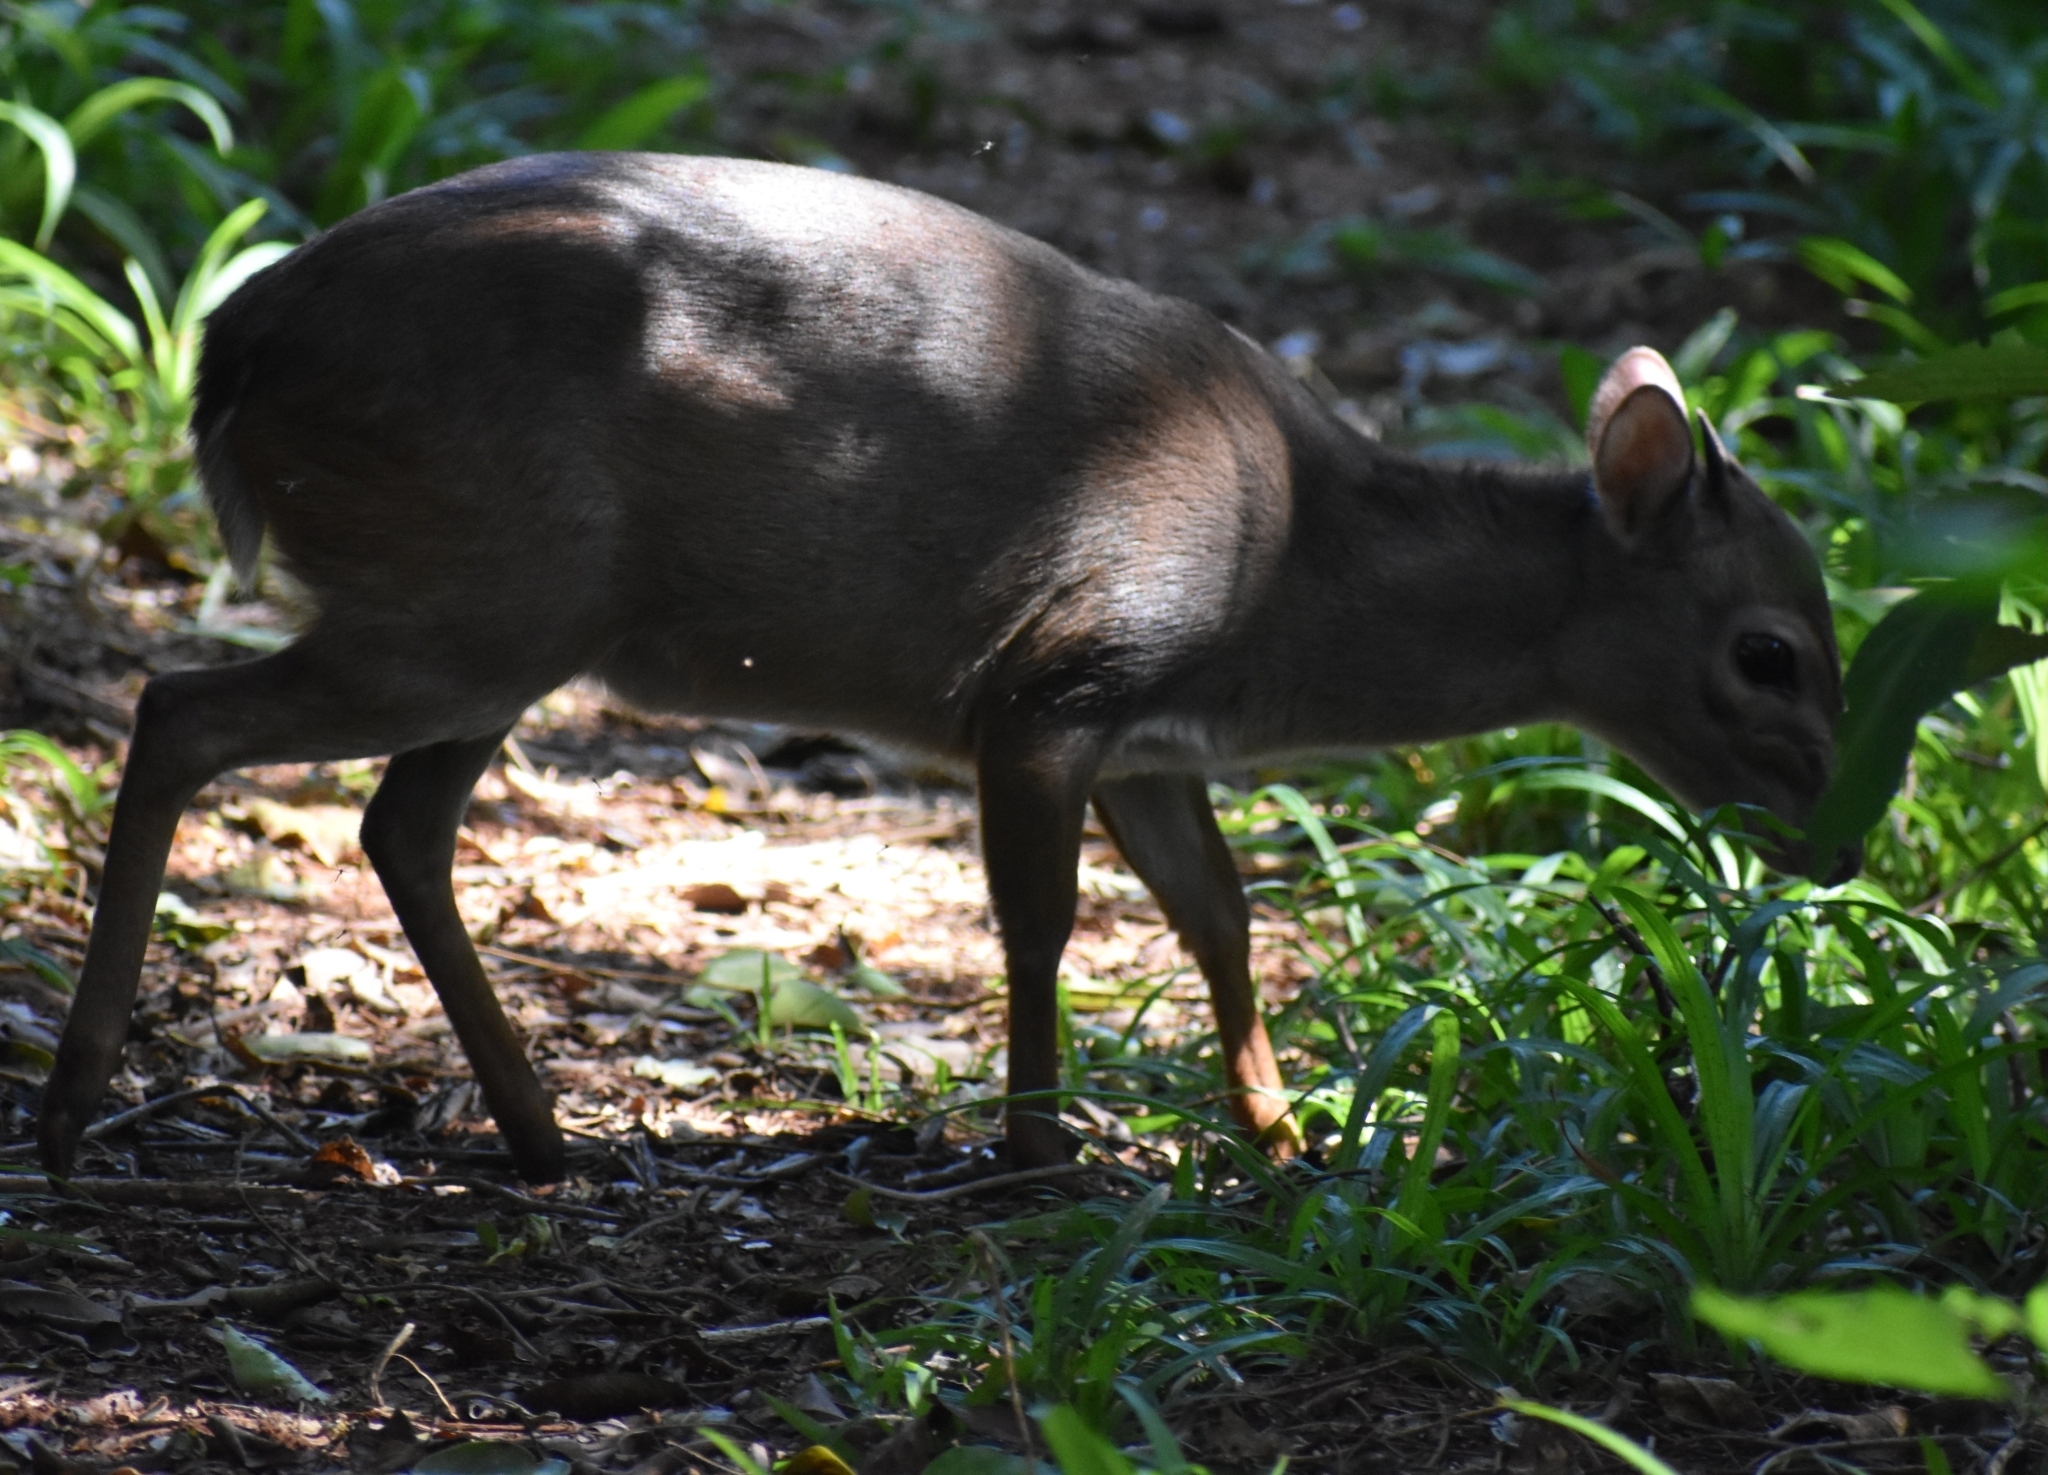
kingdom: Animalia
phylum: Chordata
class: Mammalia
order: Artiodactyla
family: Bovidae
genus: Philantomba
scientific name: Philantomba monticola
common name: Blue duiker
